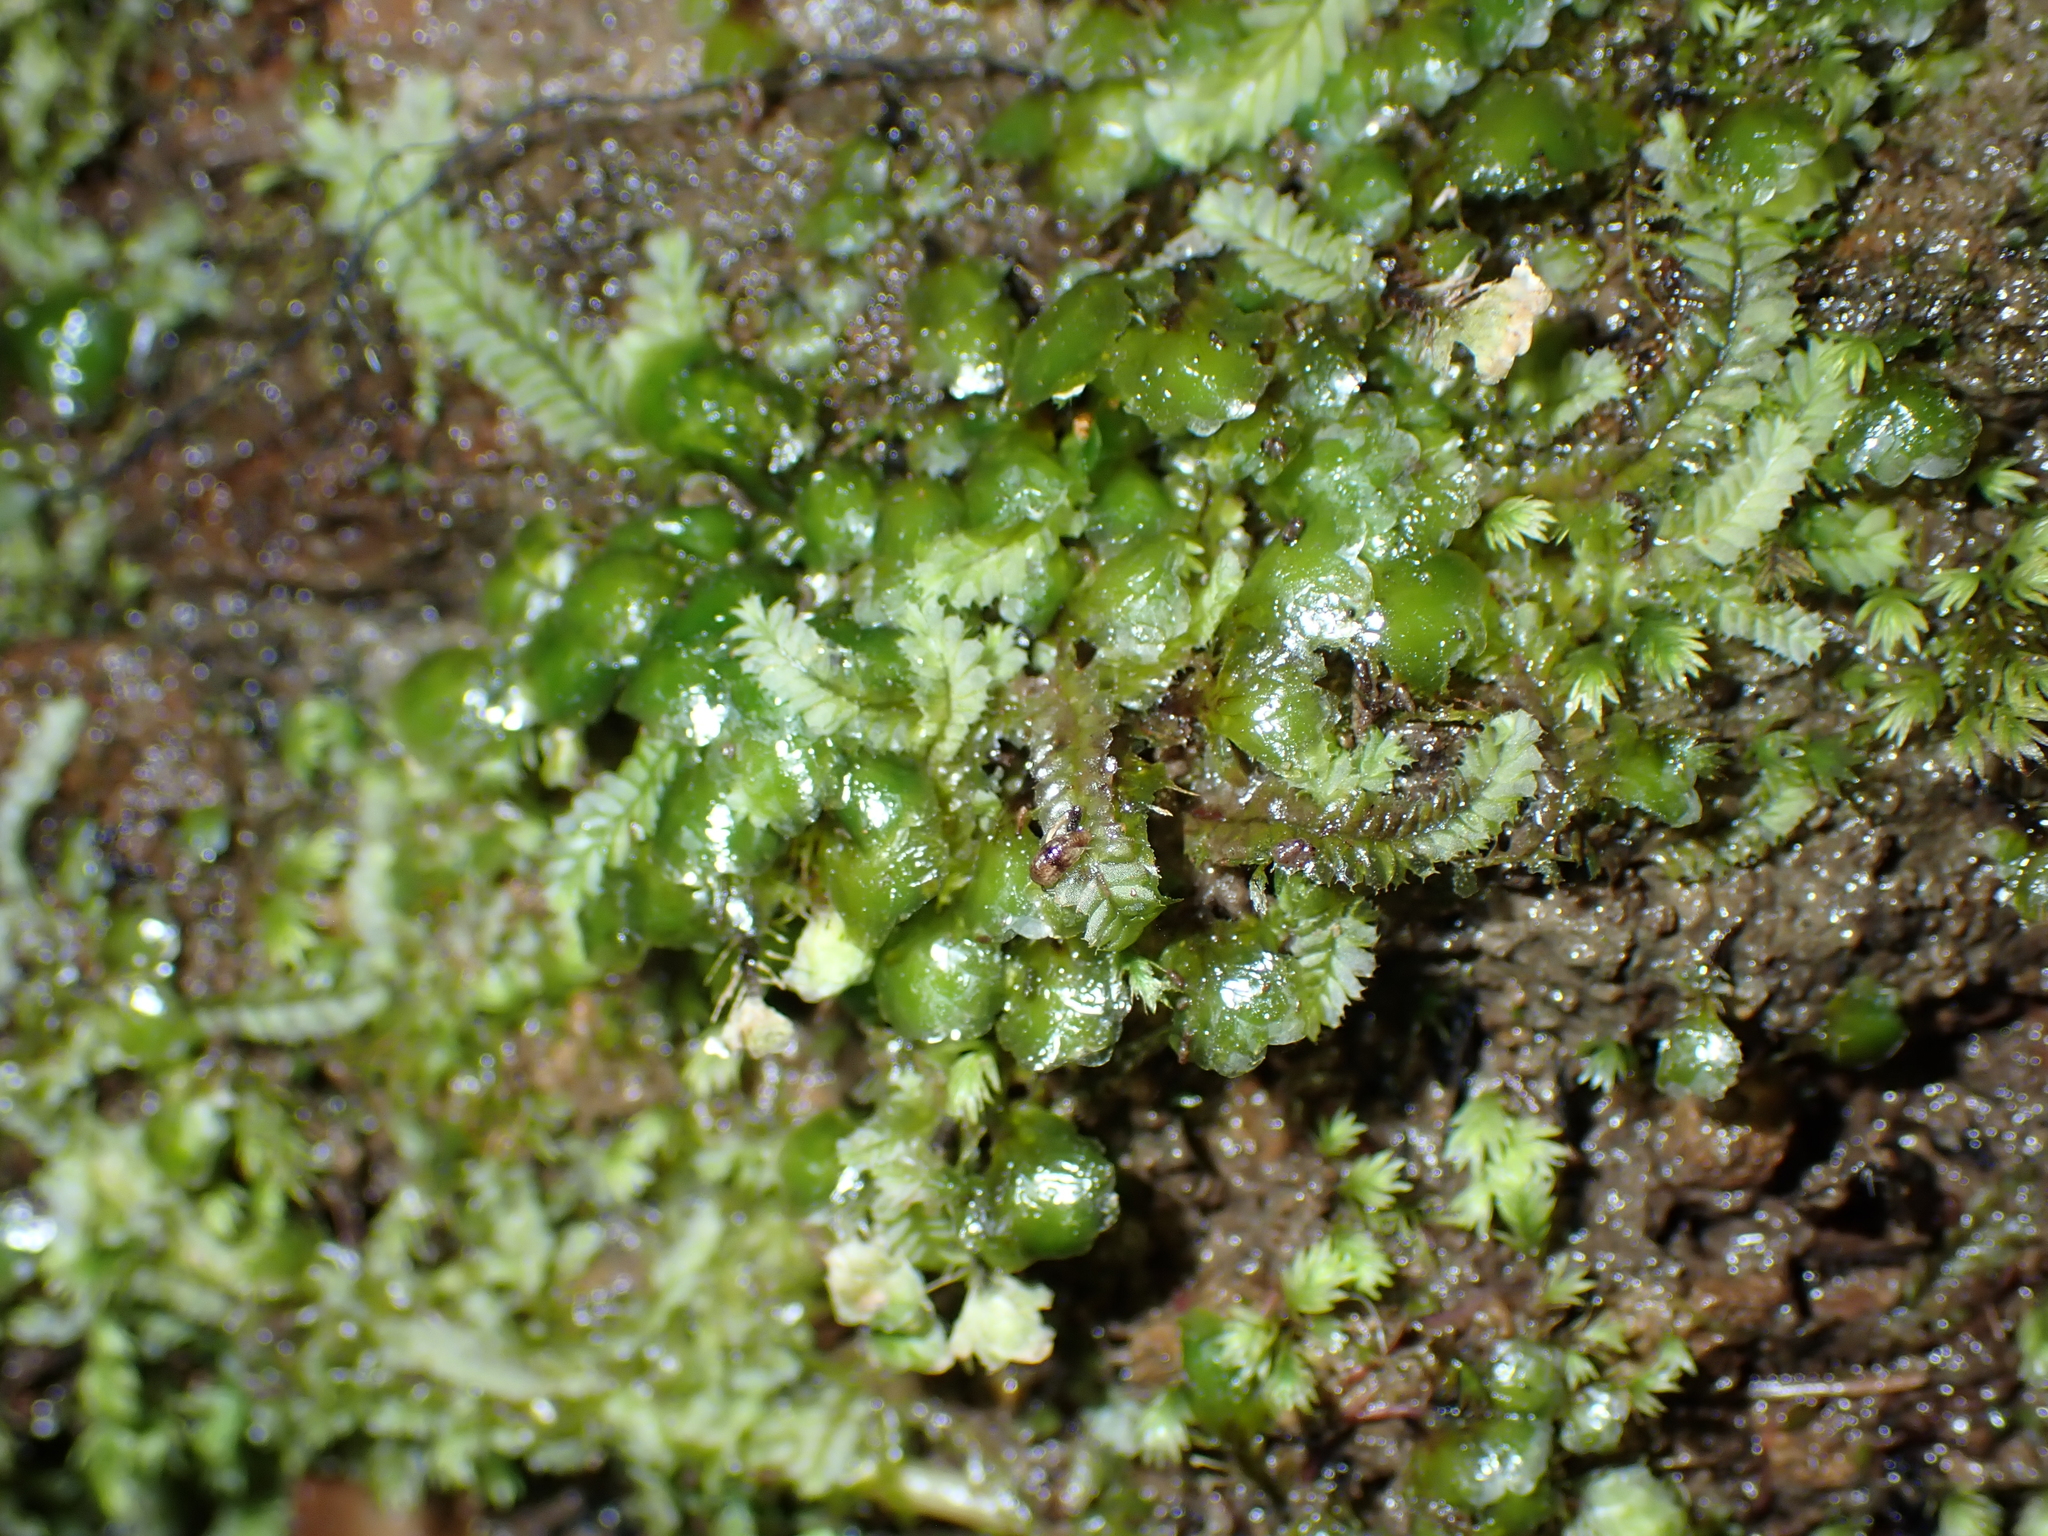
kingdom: Plantae
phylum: Bryophyta
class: Bryopsida
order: Hookeriales
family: Daltoniaceae
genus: Achrophyllum
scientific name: Achrophyllum
